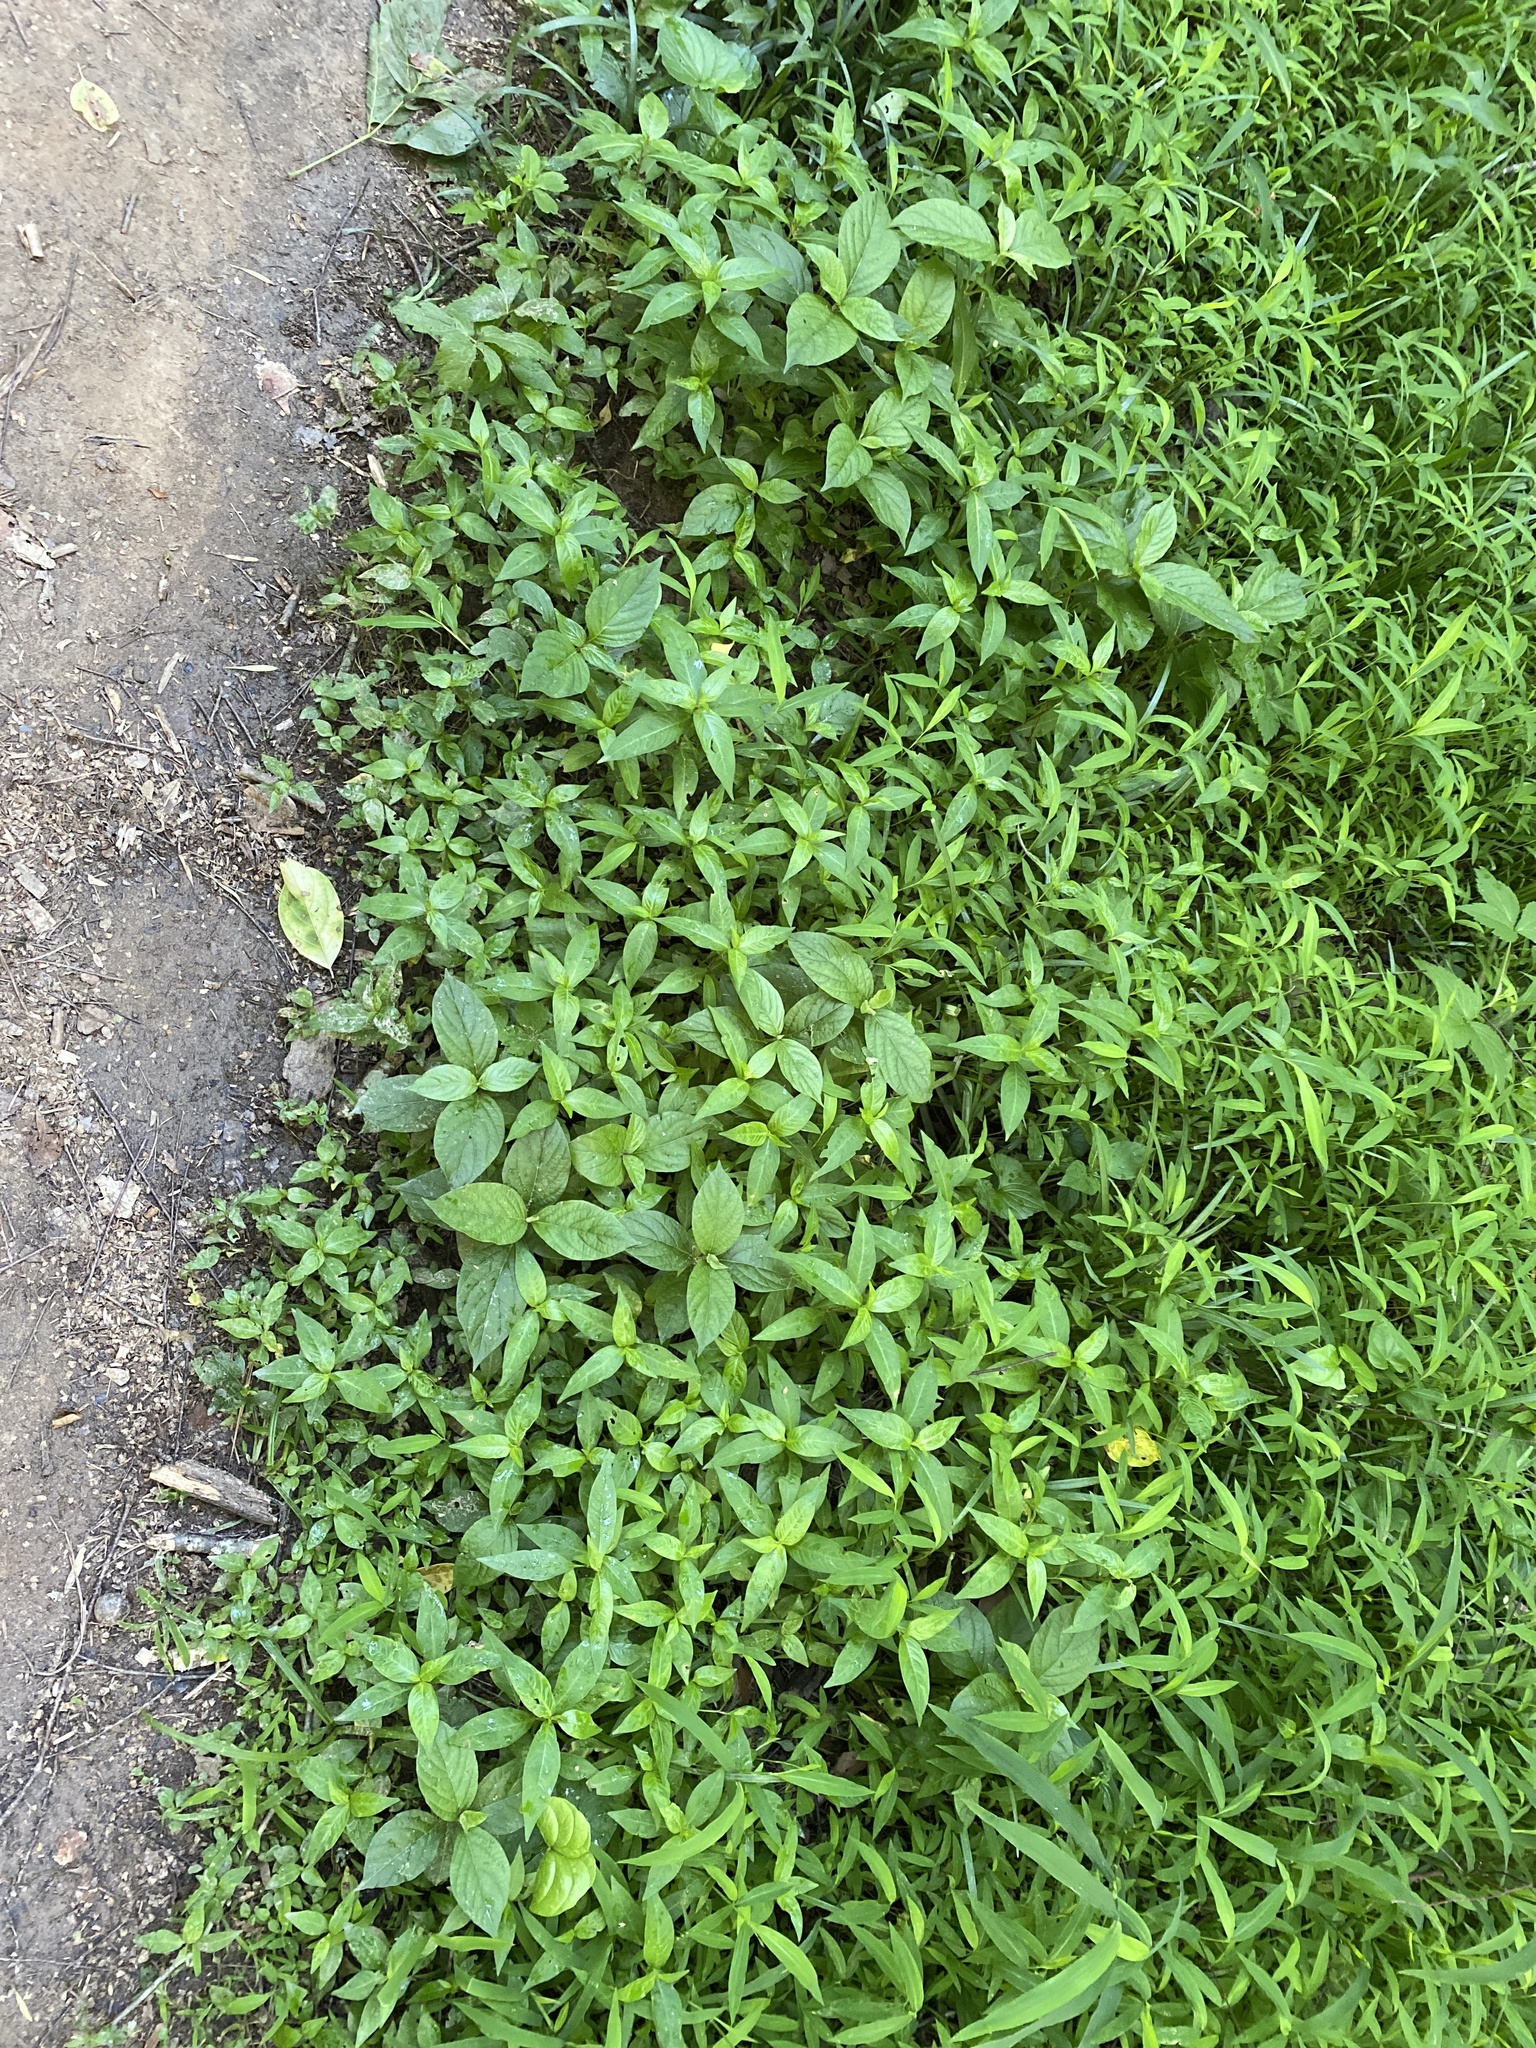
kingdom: Plantae
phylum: Tracheophyta
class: Magnoliopsida
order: Caryophyllales
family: Amaranthaceae
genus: Achyranthes
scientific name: Achyranthes bidentata
